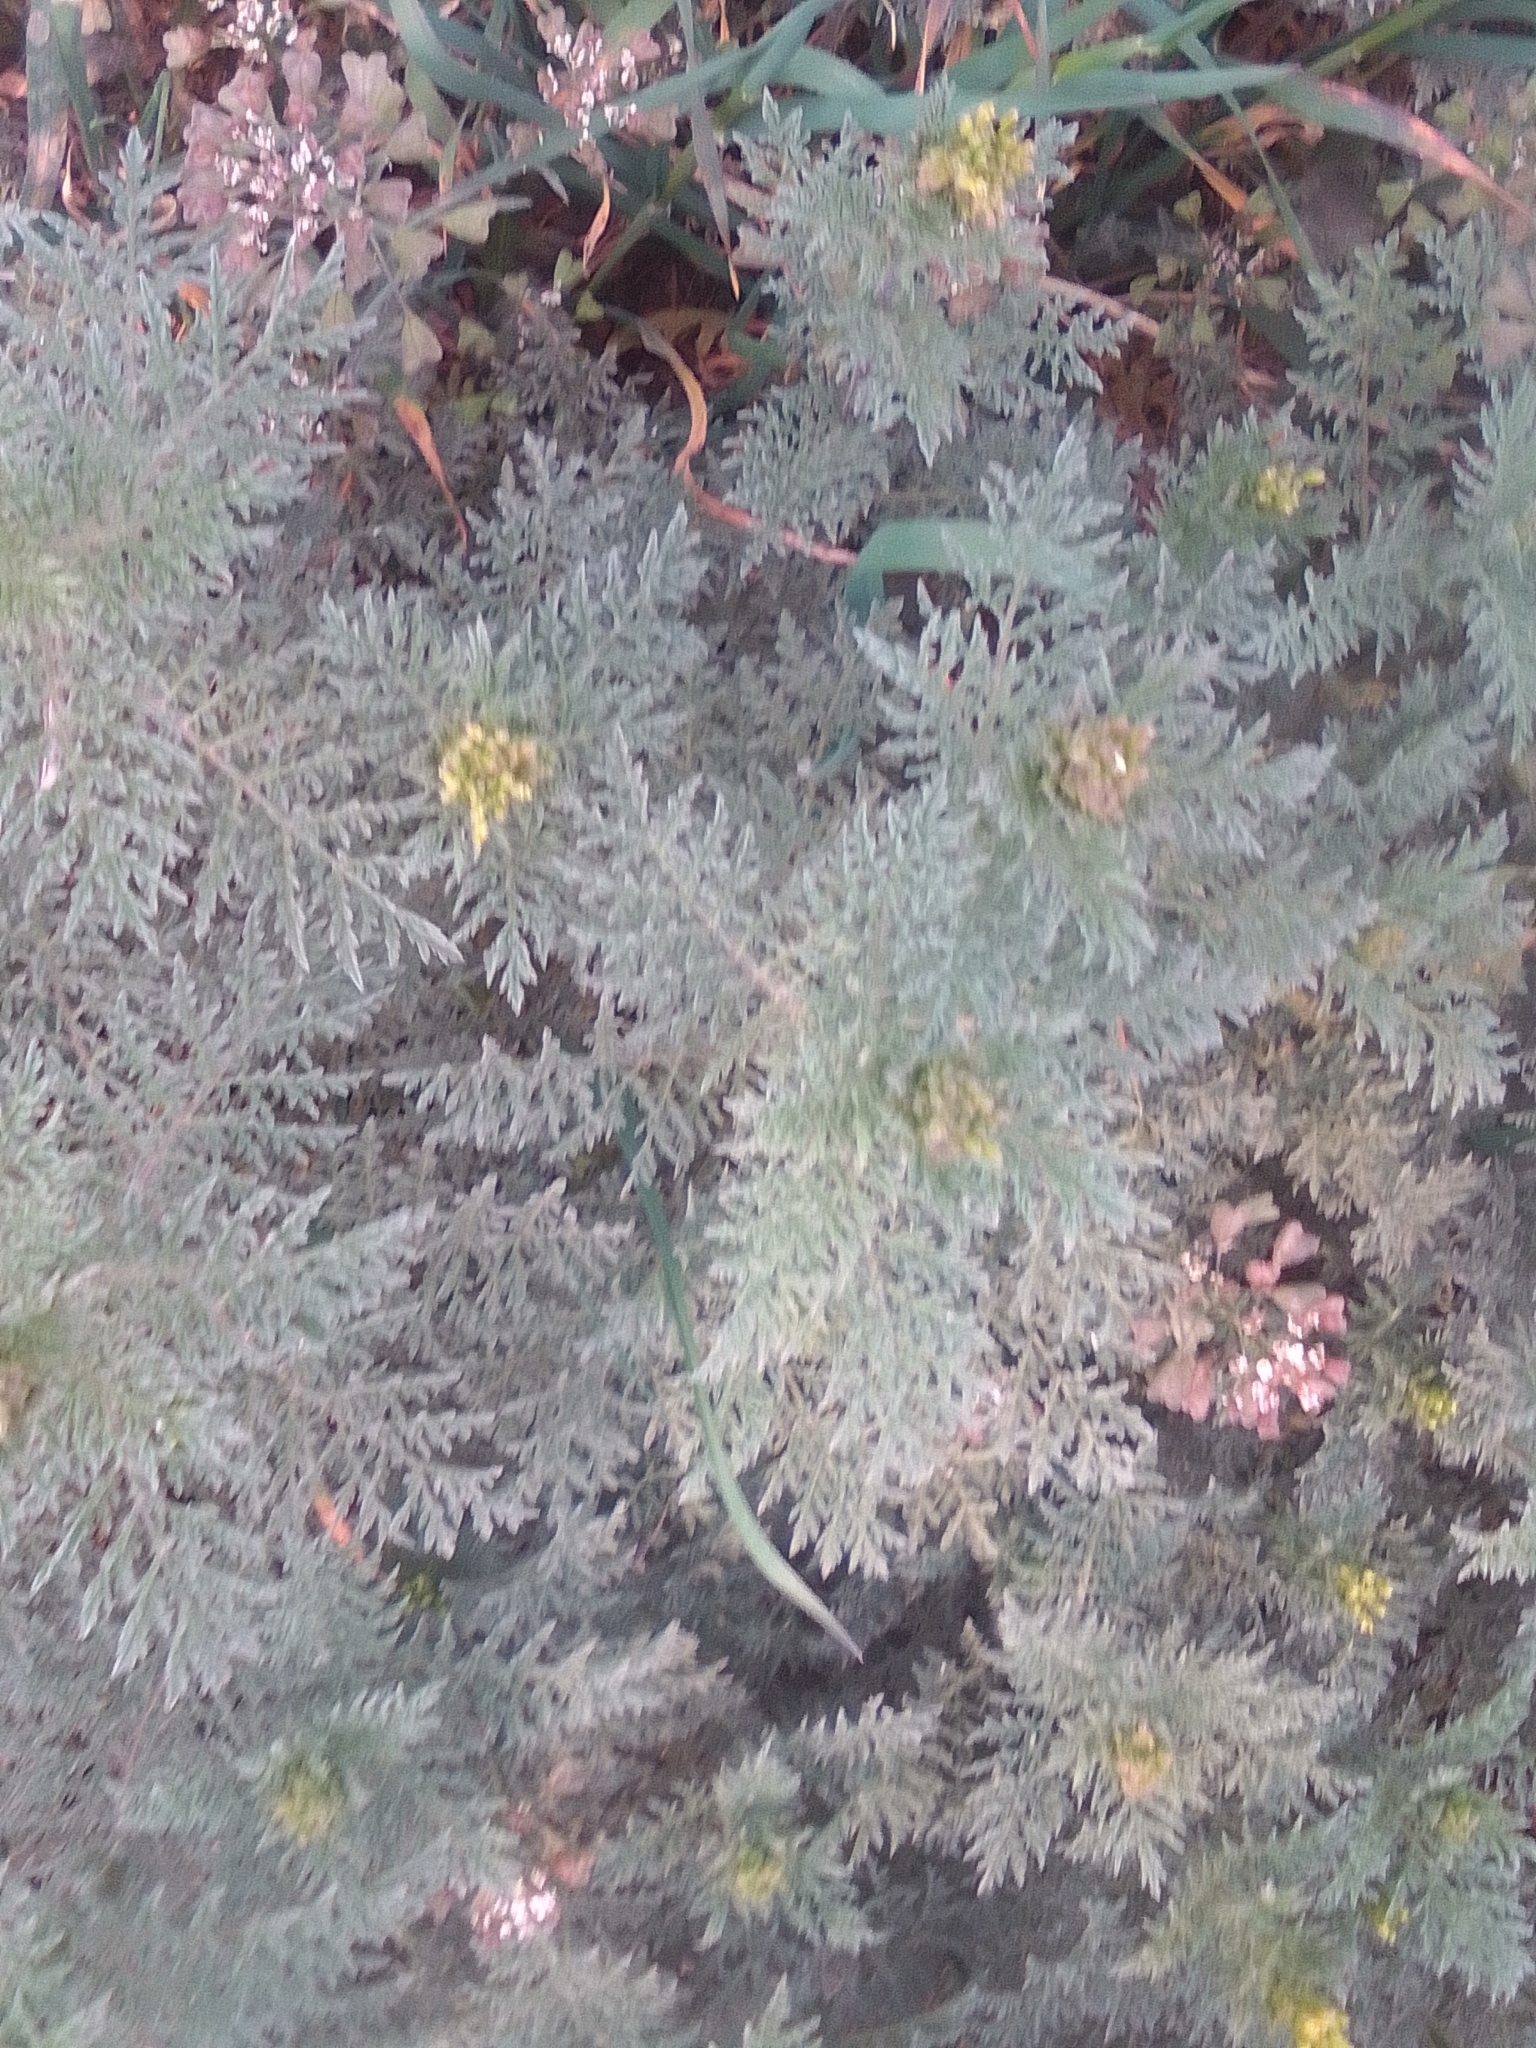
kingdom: Plantae
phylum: Tracheophyta
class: Magnoliopsida
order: Brassicales
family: Brassicaceae
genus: Descurainia
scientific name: Descurainia sophia
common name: Flixweed
